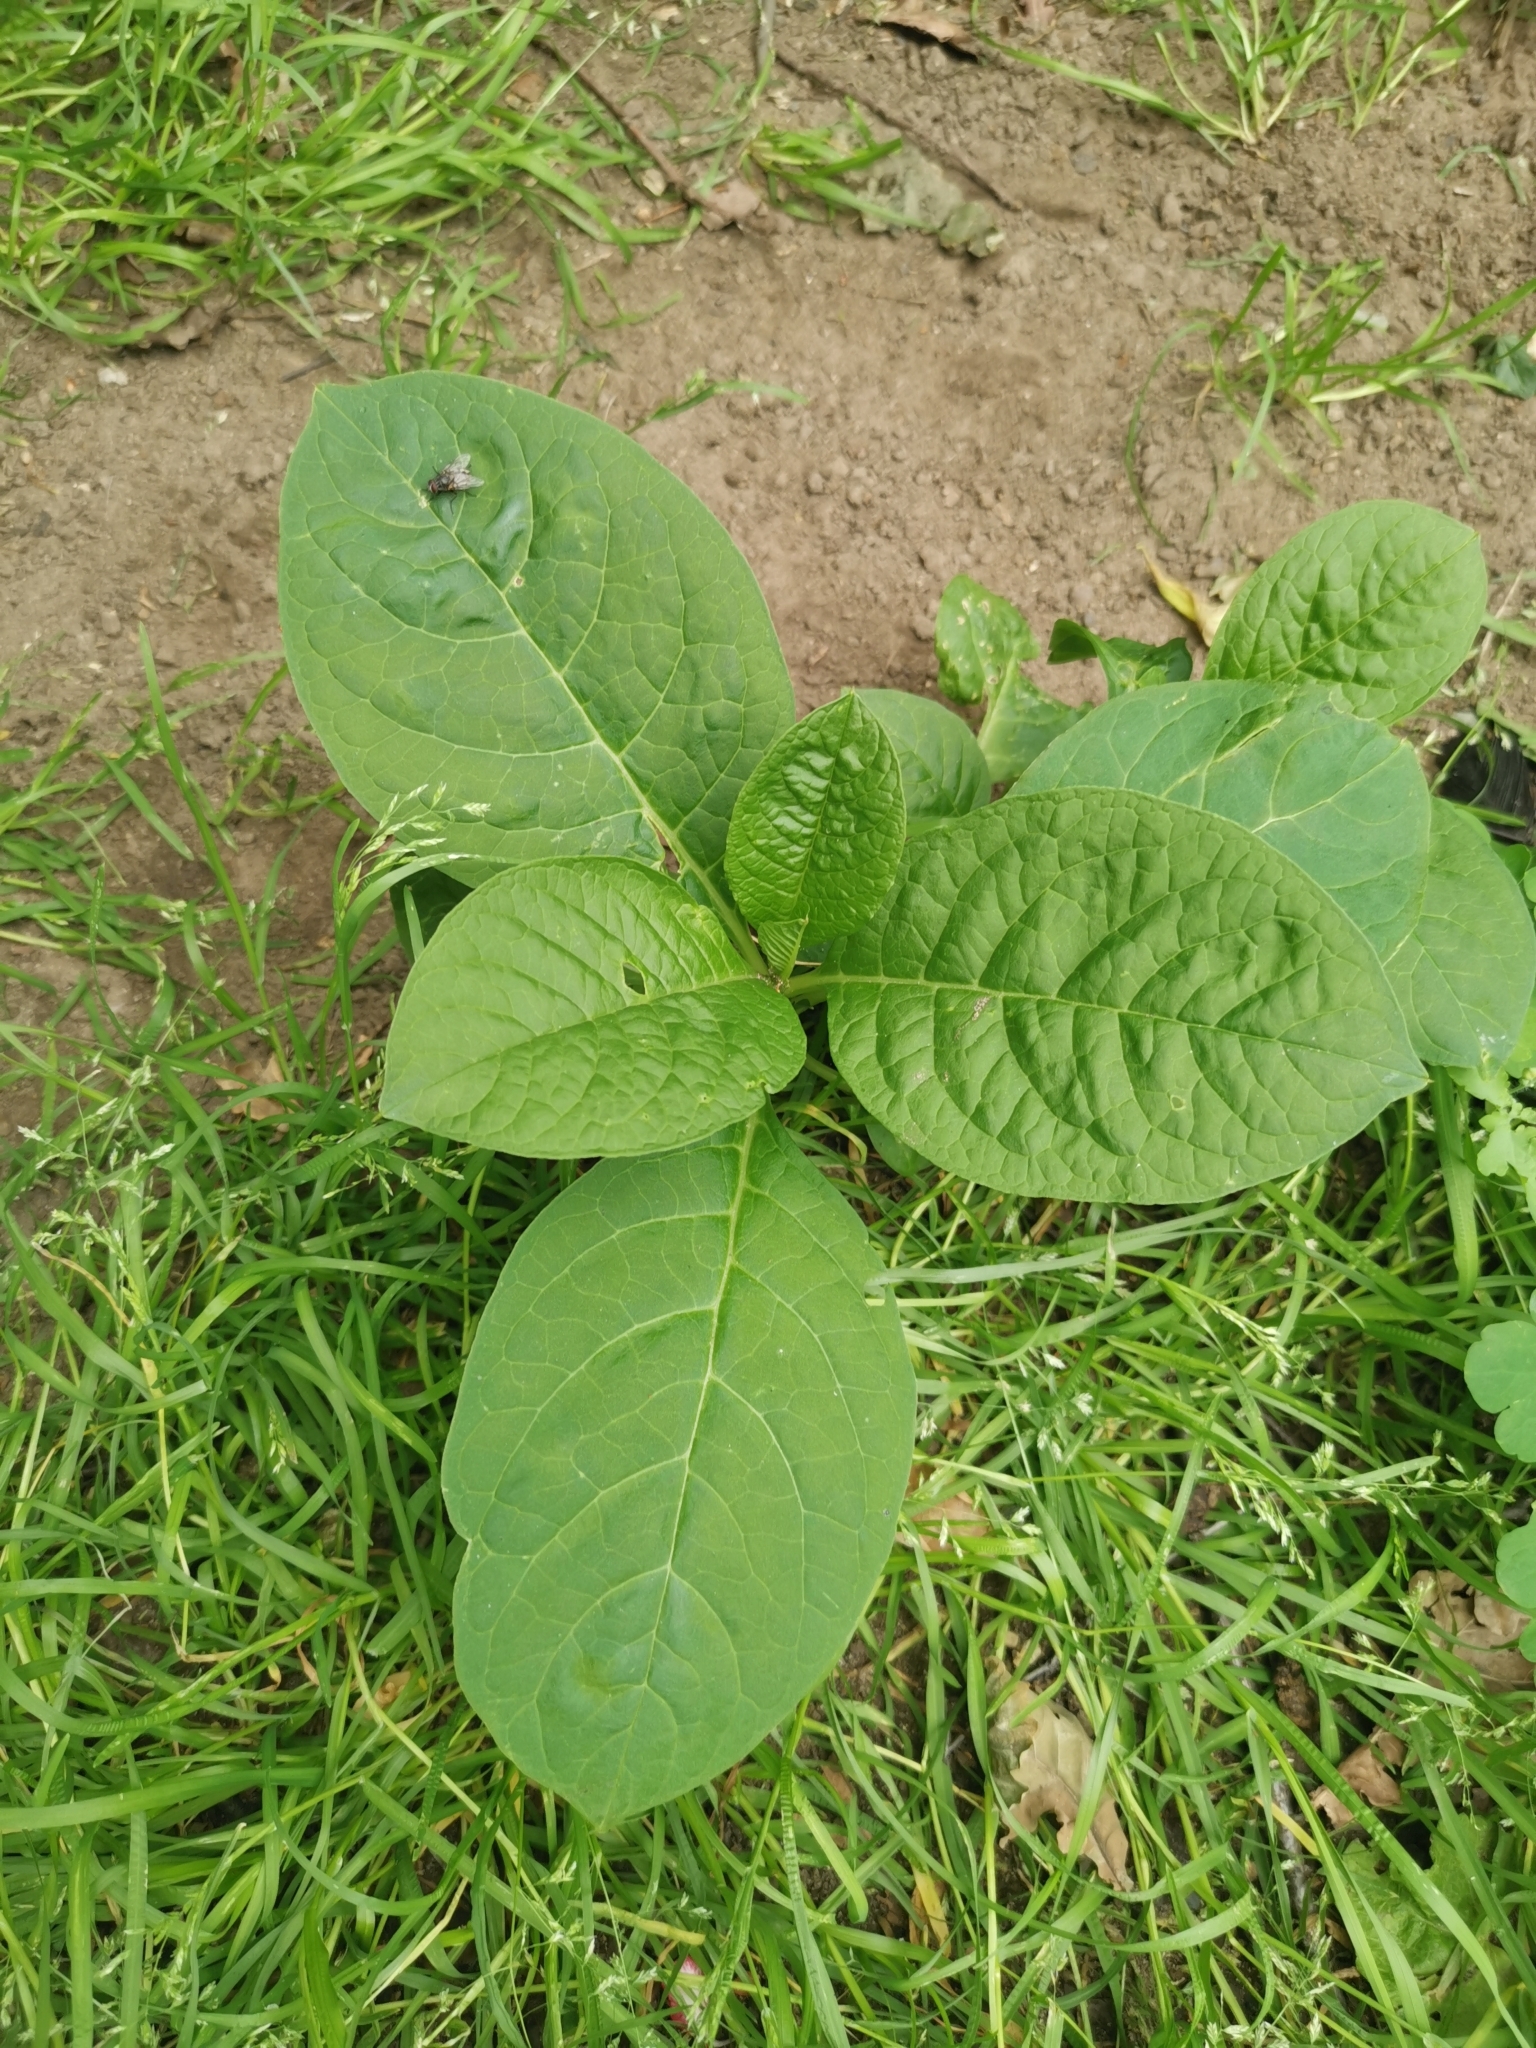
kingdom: Plantae
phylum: Tracheophyta
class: Magnoliopsida
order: Caryophyllales
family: Phytolaccaceae
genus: Phytolacca
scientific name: Phytolacca acinosa
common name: Indian pokeweed
